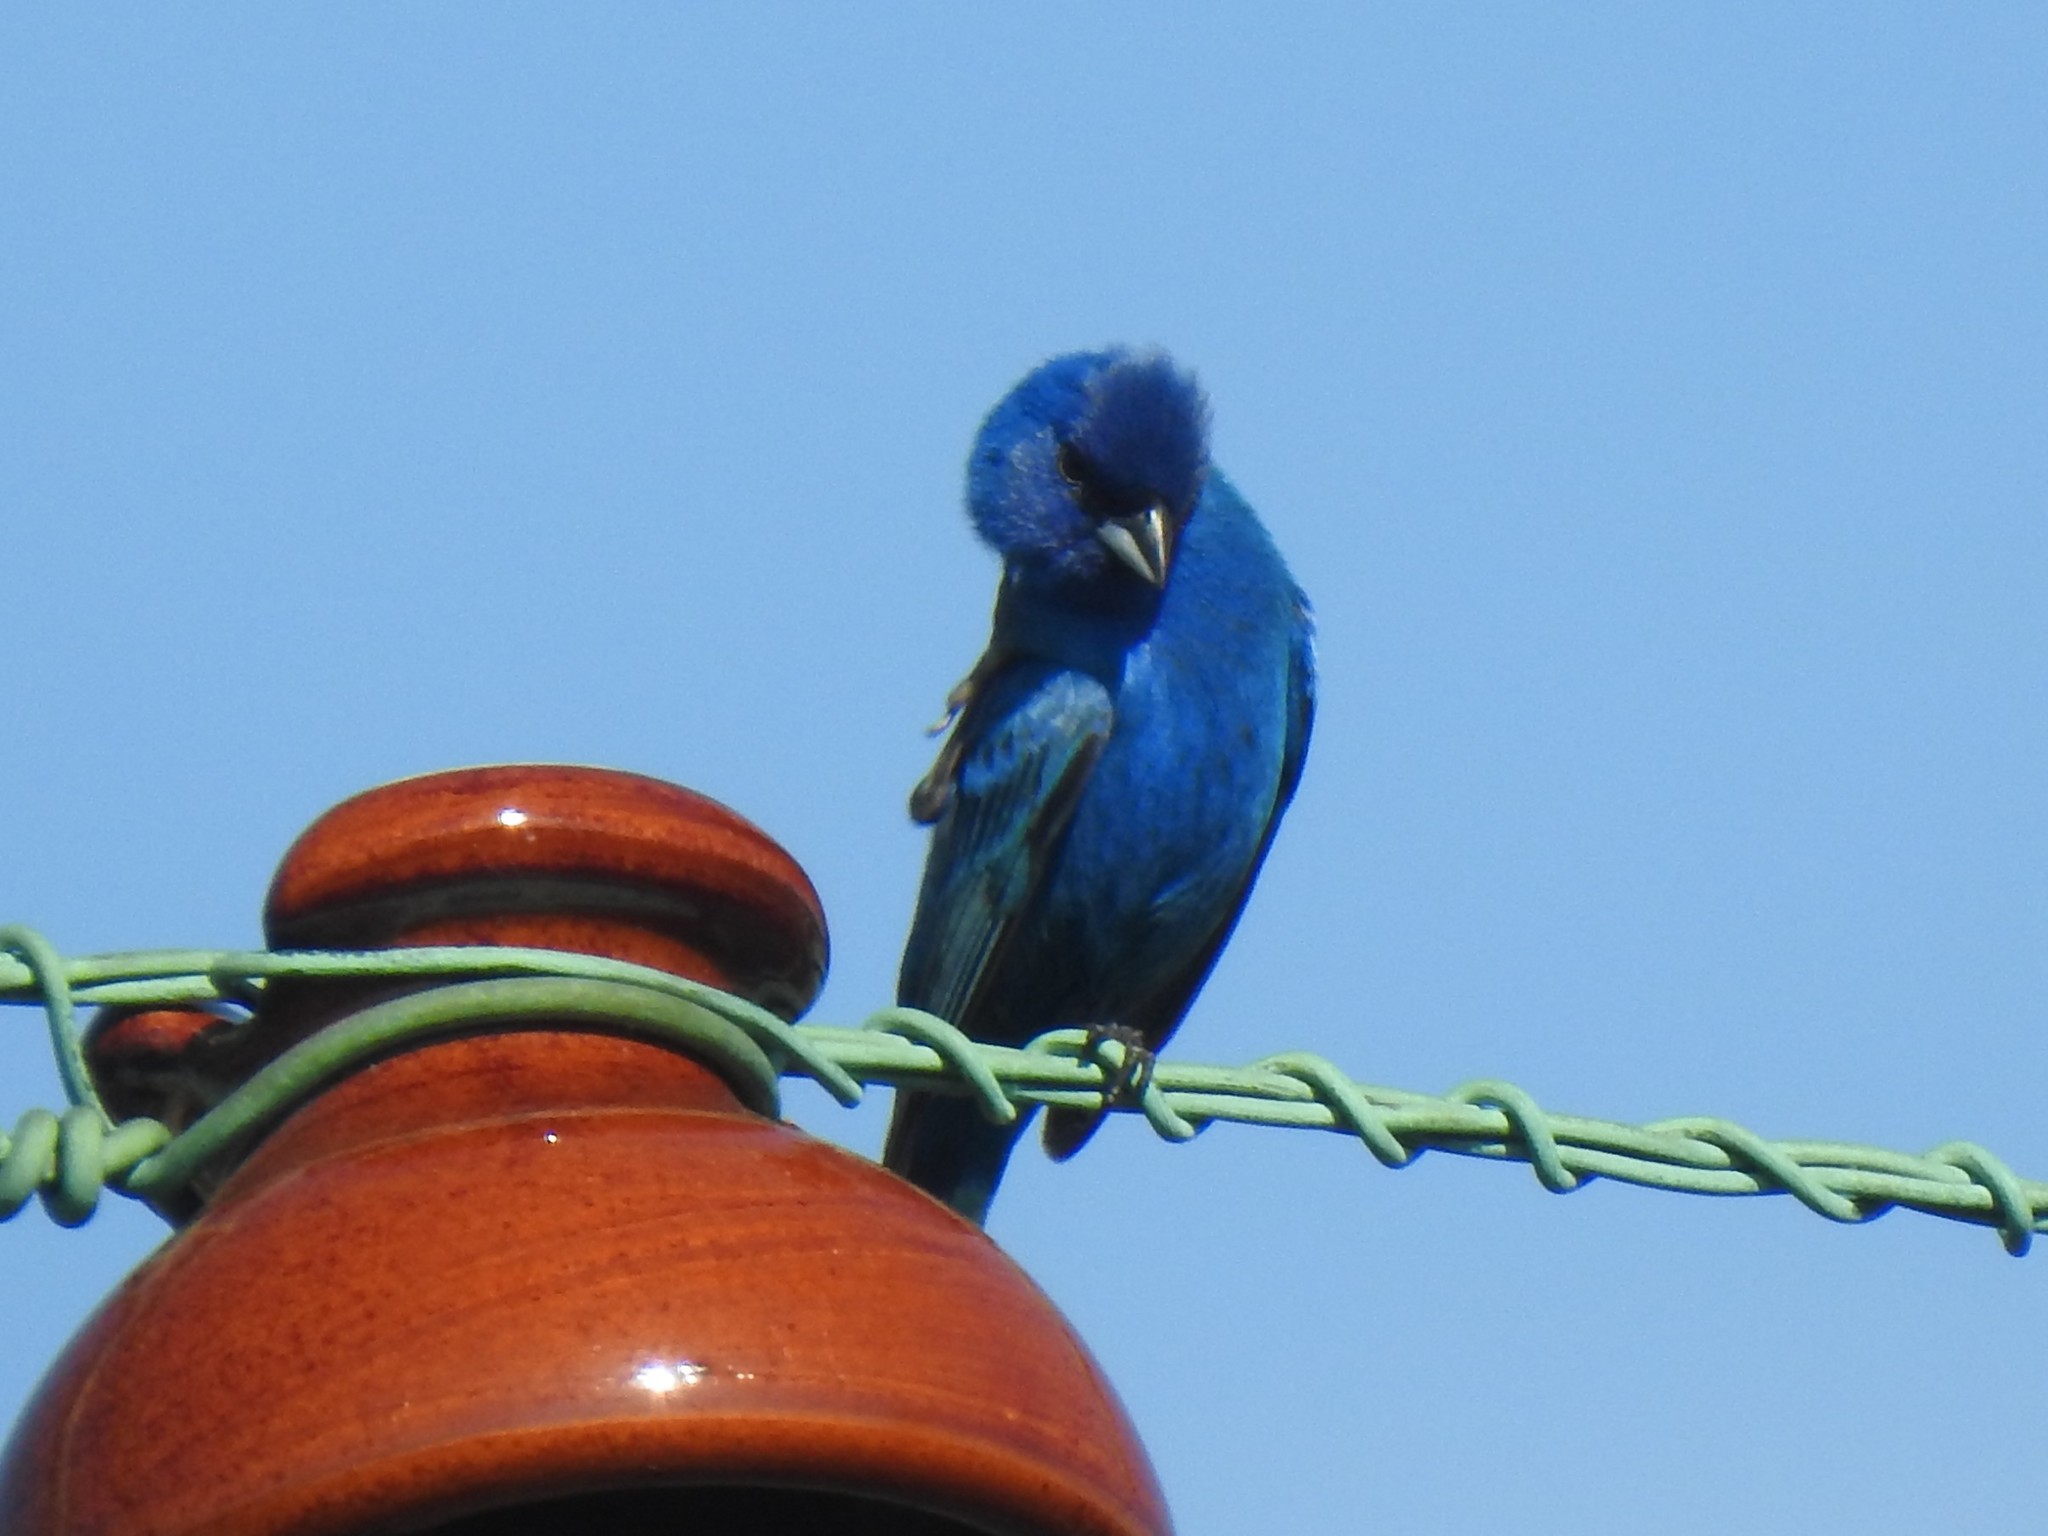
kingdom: Animalia
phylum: Chordata
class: Aves
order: Passeriformes
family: Cardinalidae
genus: Passerina
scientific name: Passerina cyanea
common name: Indigo bunting
